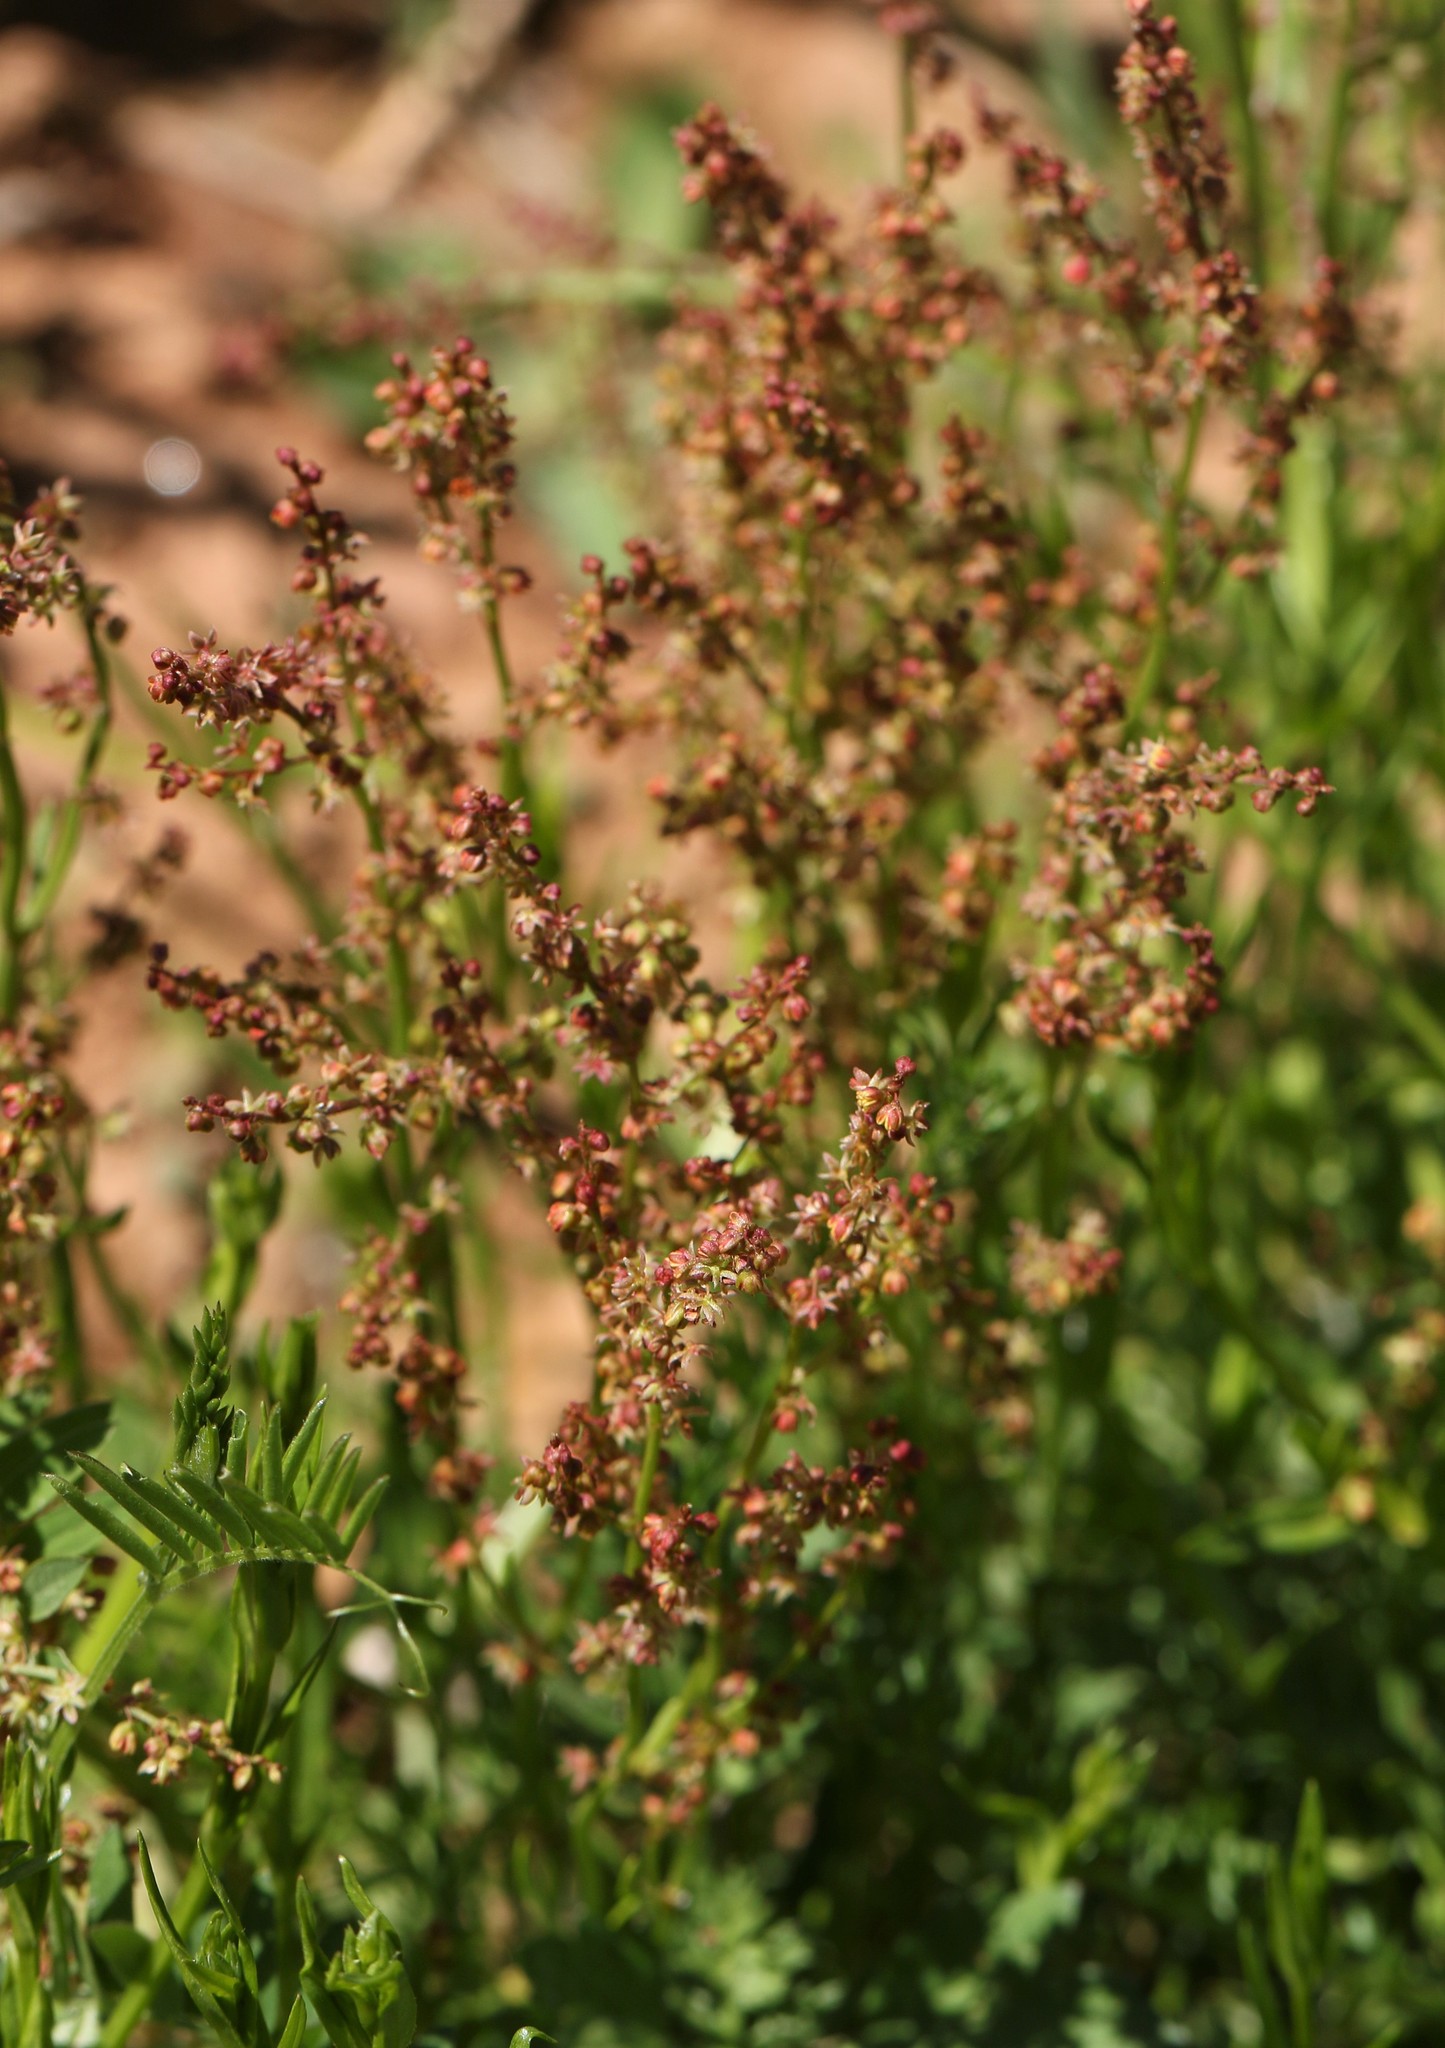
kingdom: Plantae
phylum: Tracheophyta
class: Magnoliopsida
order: Caryophyllales
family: Polygonaceae
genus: Rumex
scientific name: Rumex acetosella
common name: Common sheep sorrel
